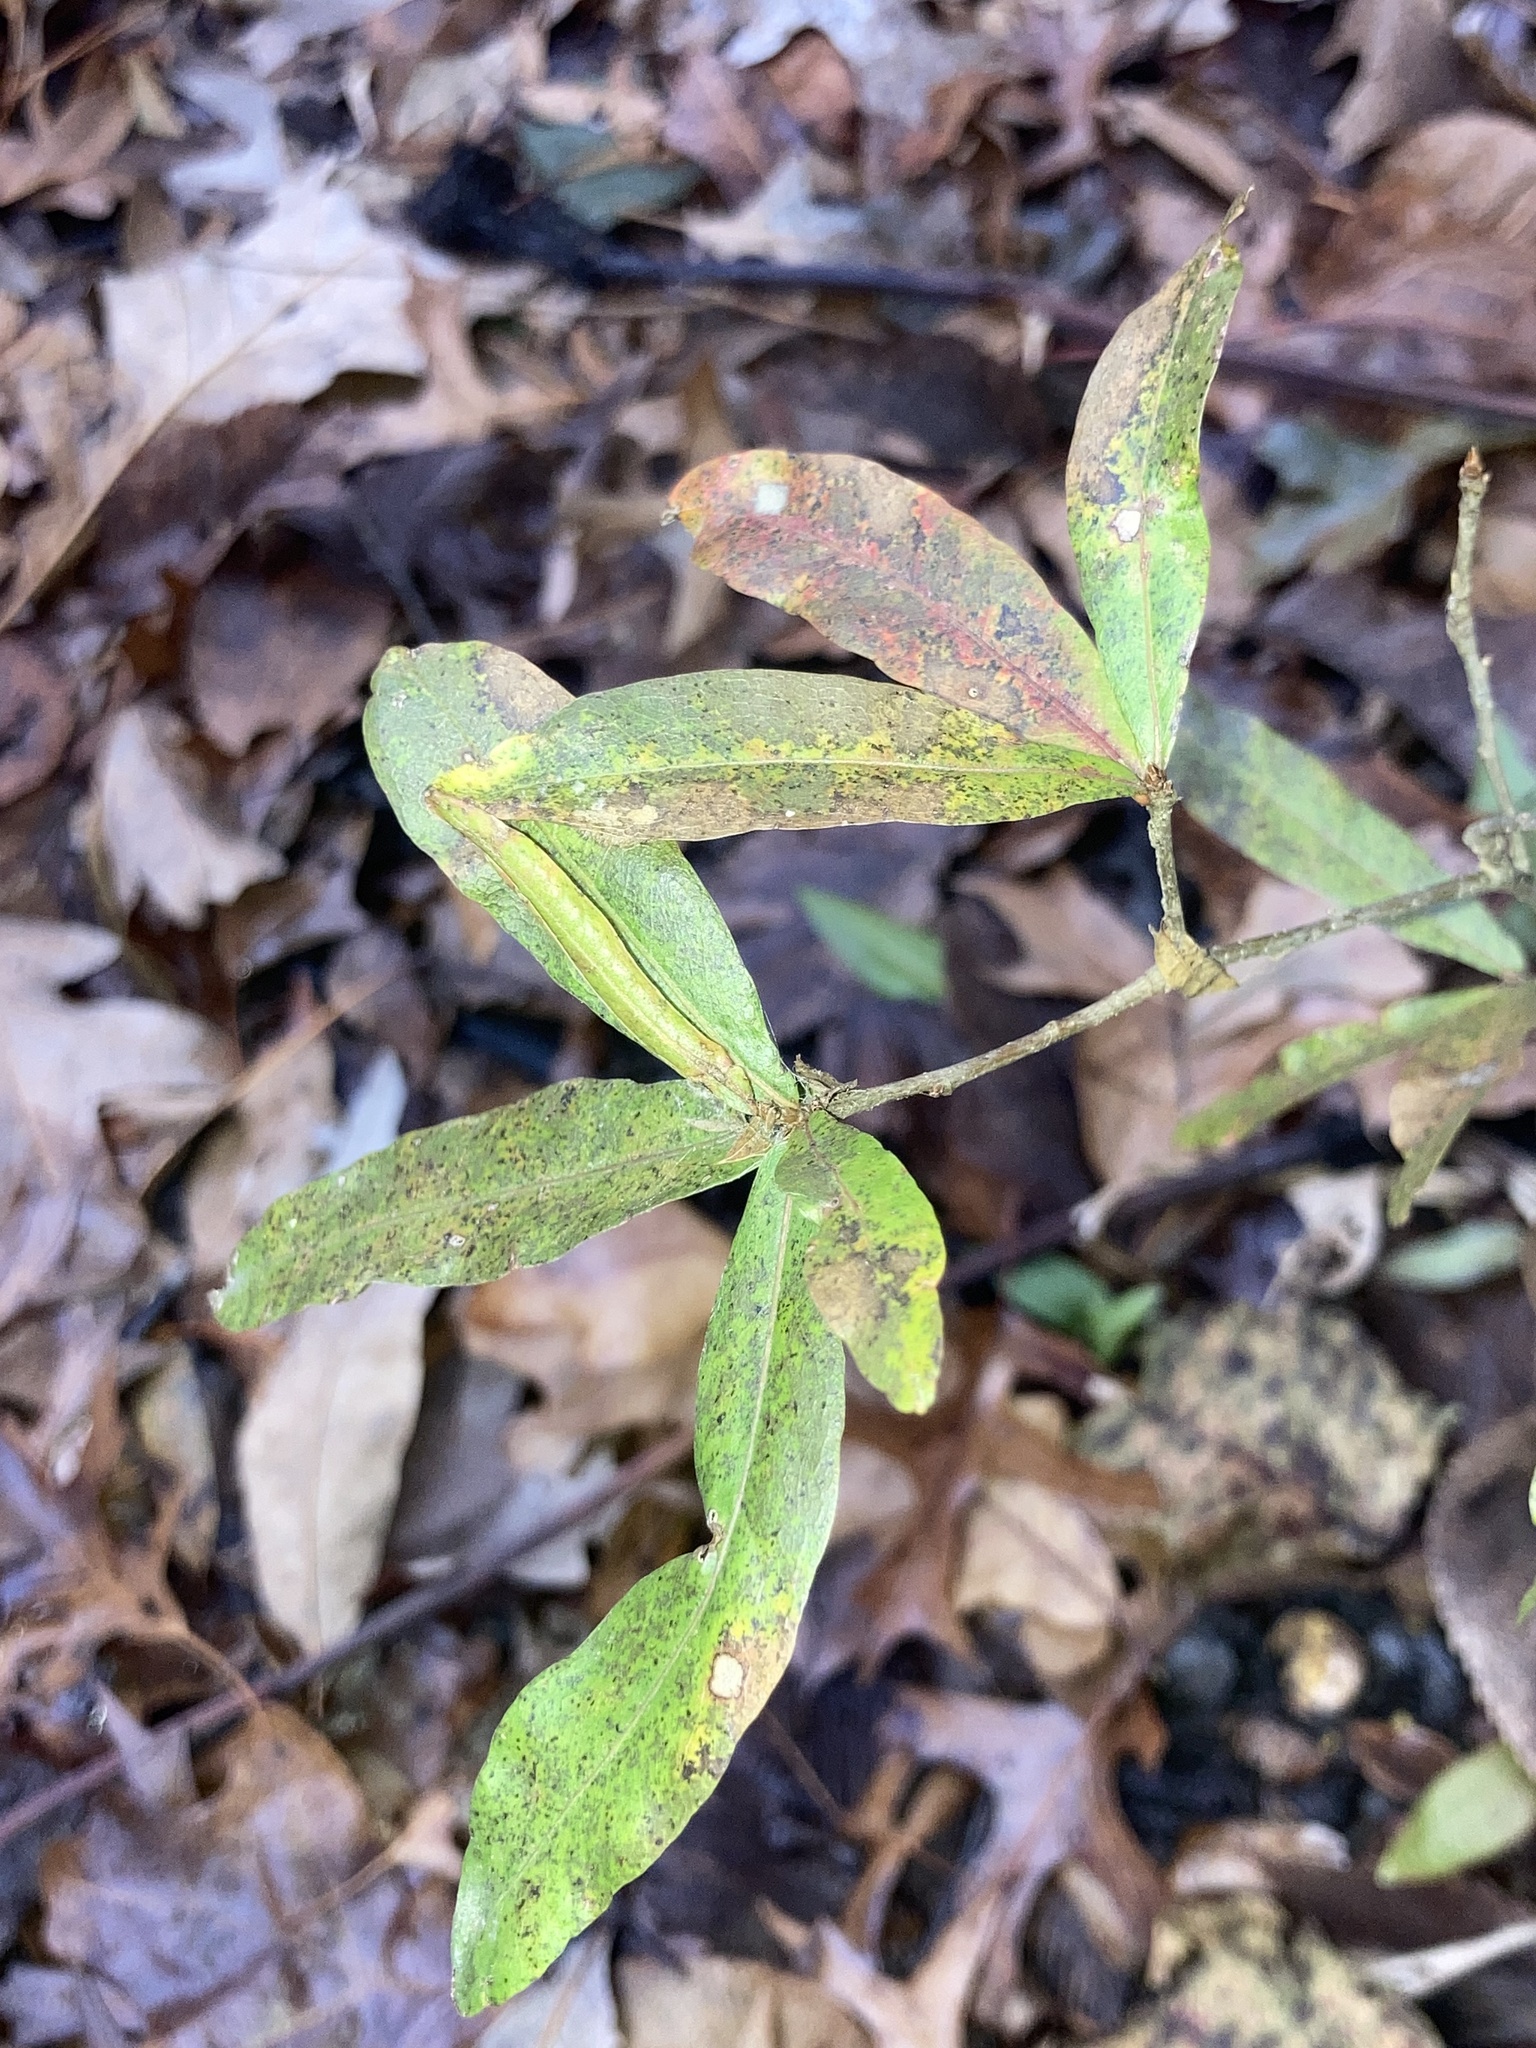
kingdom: Plantae
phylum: Tracheophyta
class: Magnoliopsida
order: Fagales
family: Fagaceae
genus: Quercus
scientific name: Quercus phellos
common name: Willow oak
